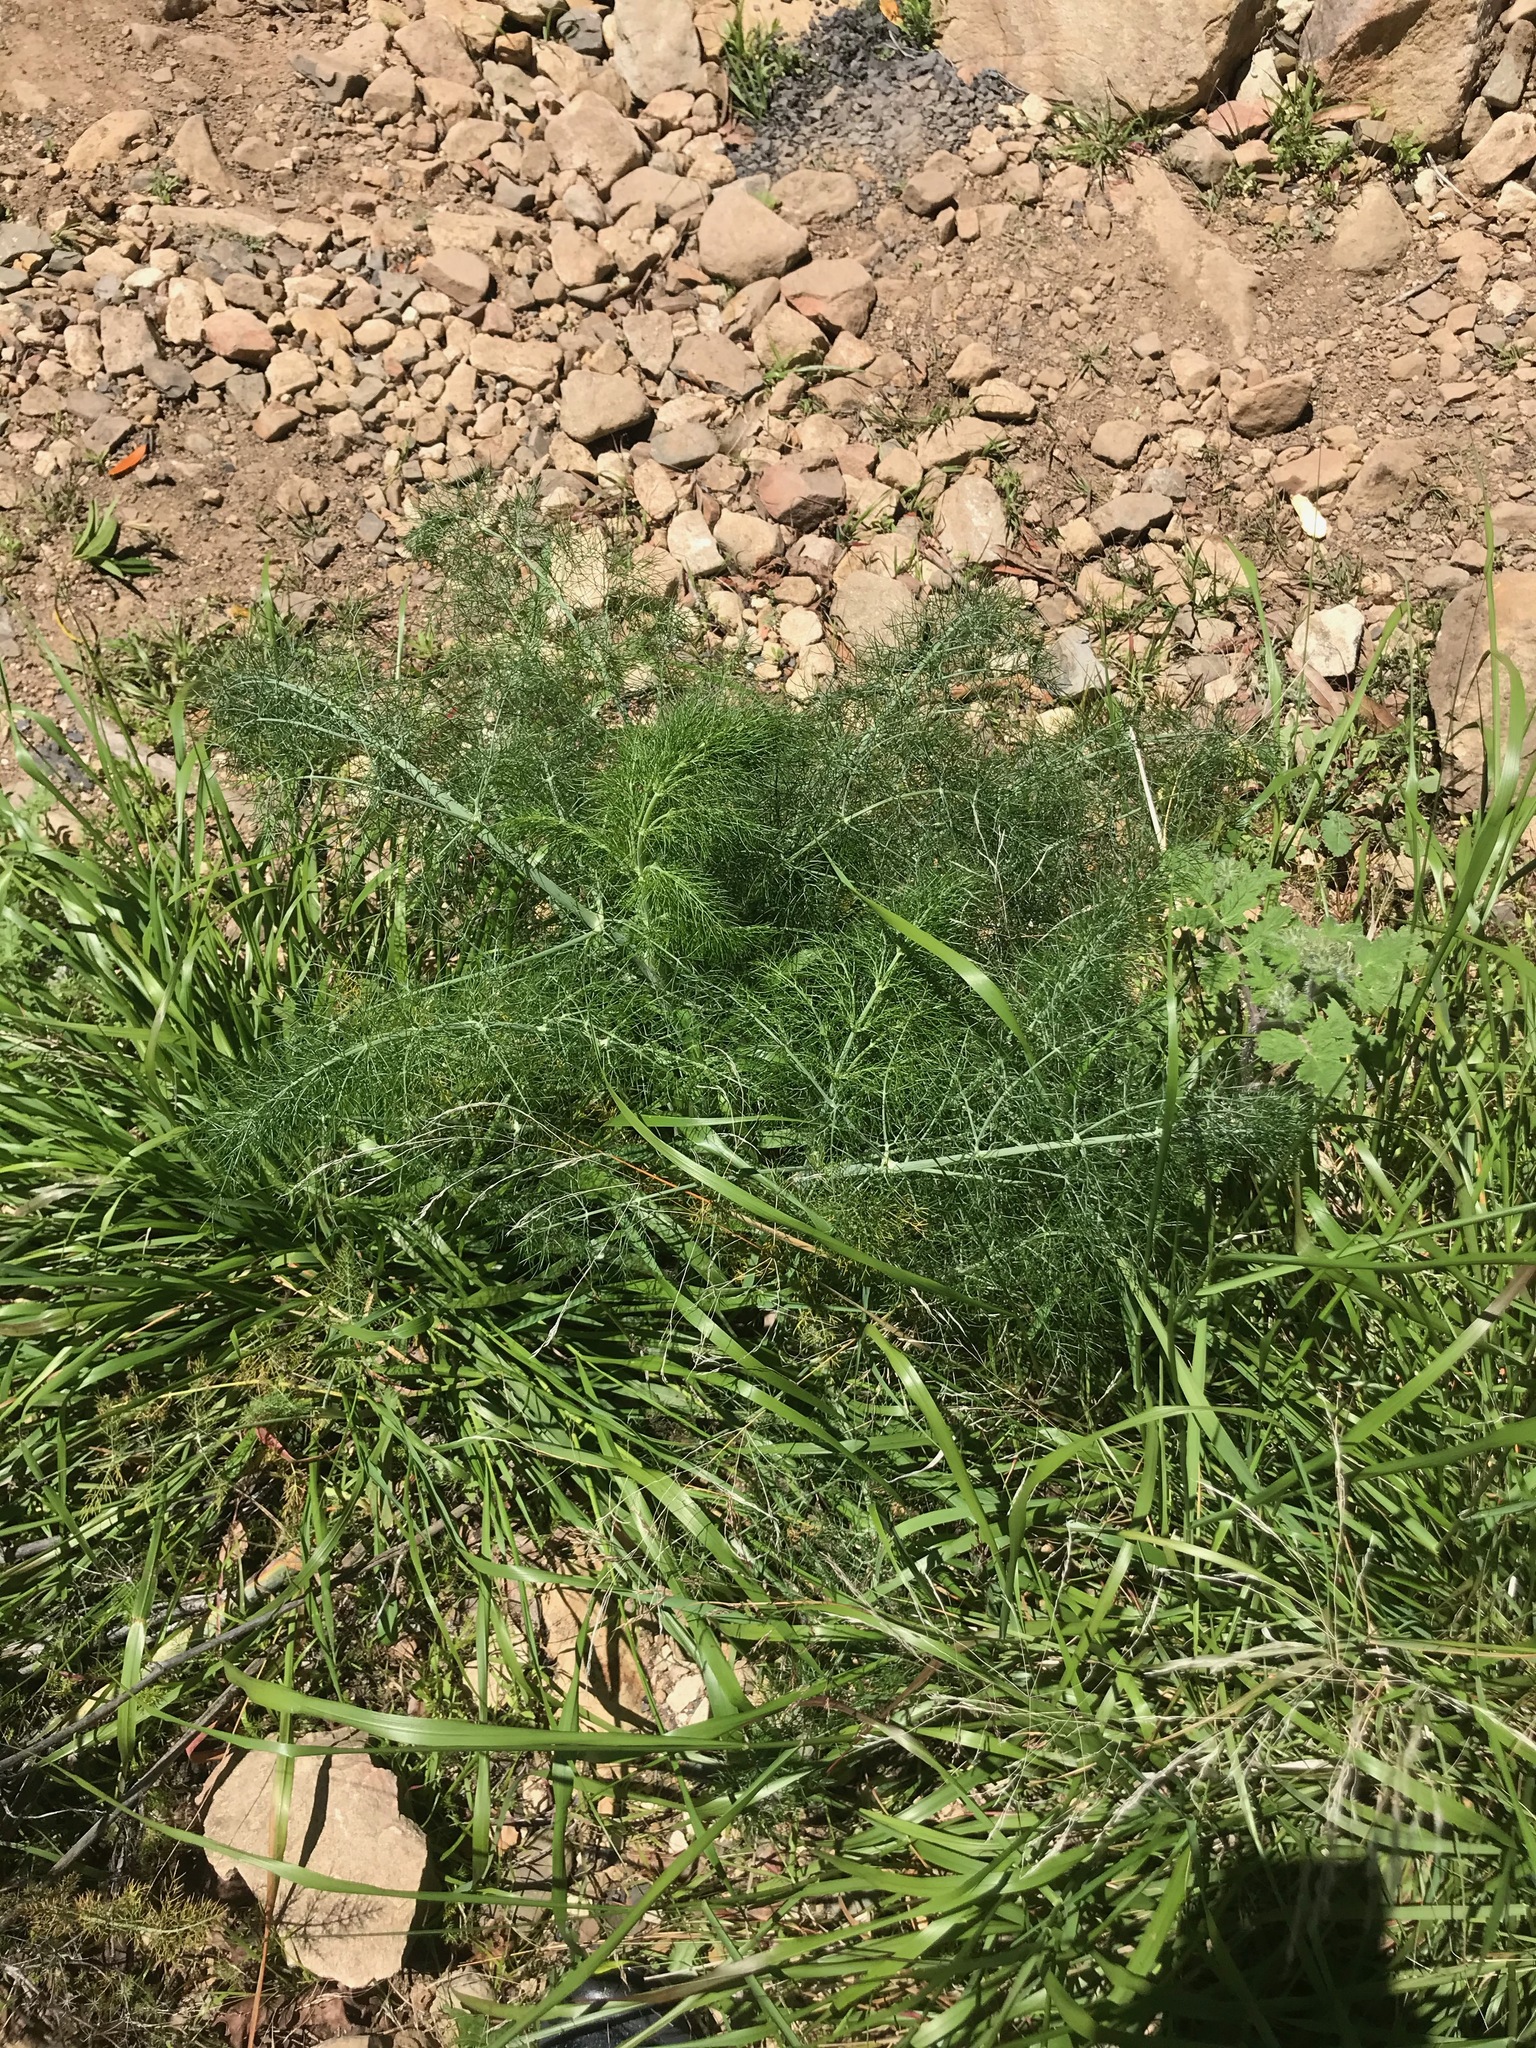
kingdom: Plantae
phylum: Tracheophyta
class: Magnoliopsida
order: Apiales
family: Apiaceae
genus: Foeniculum
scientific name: Foeniculum vulgare
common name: Fennel
